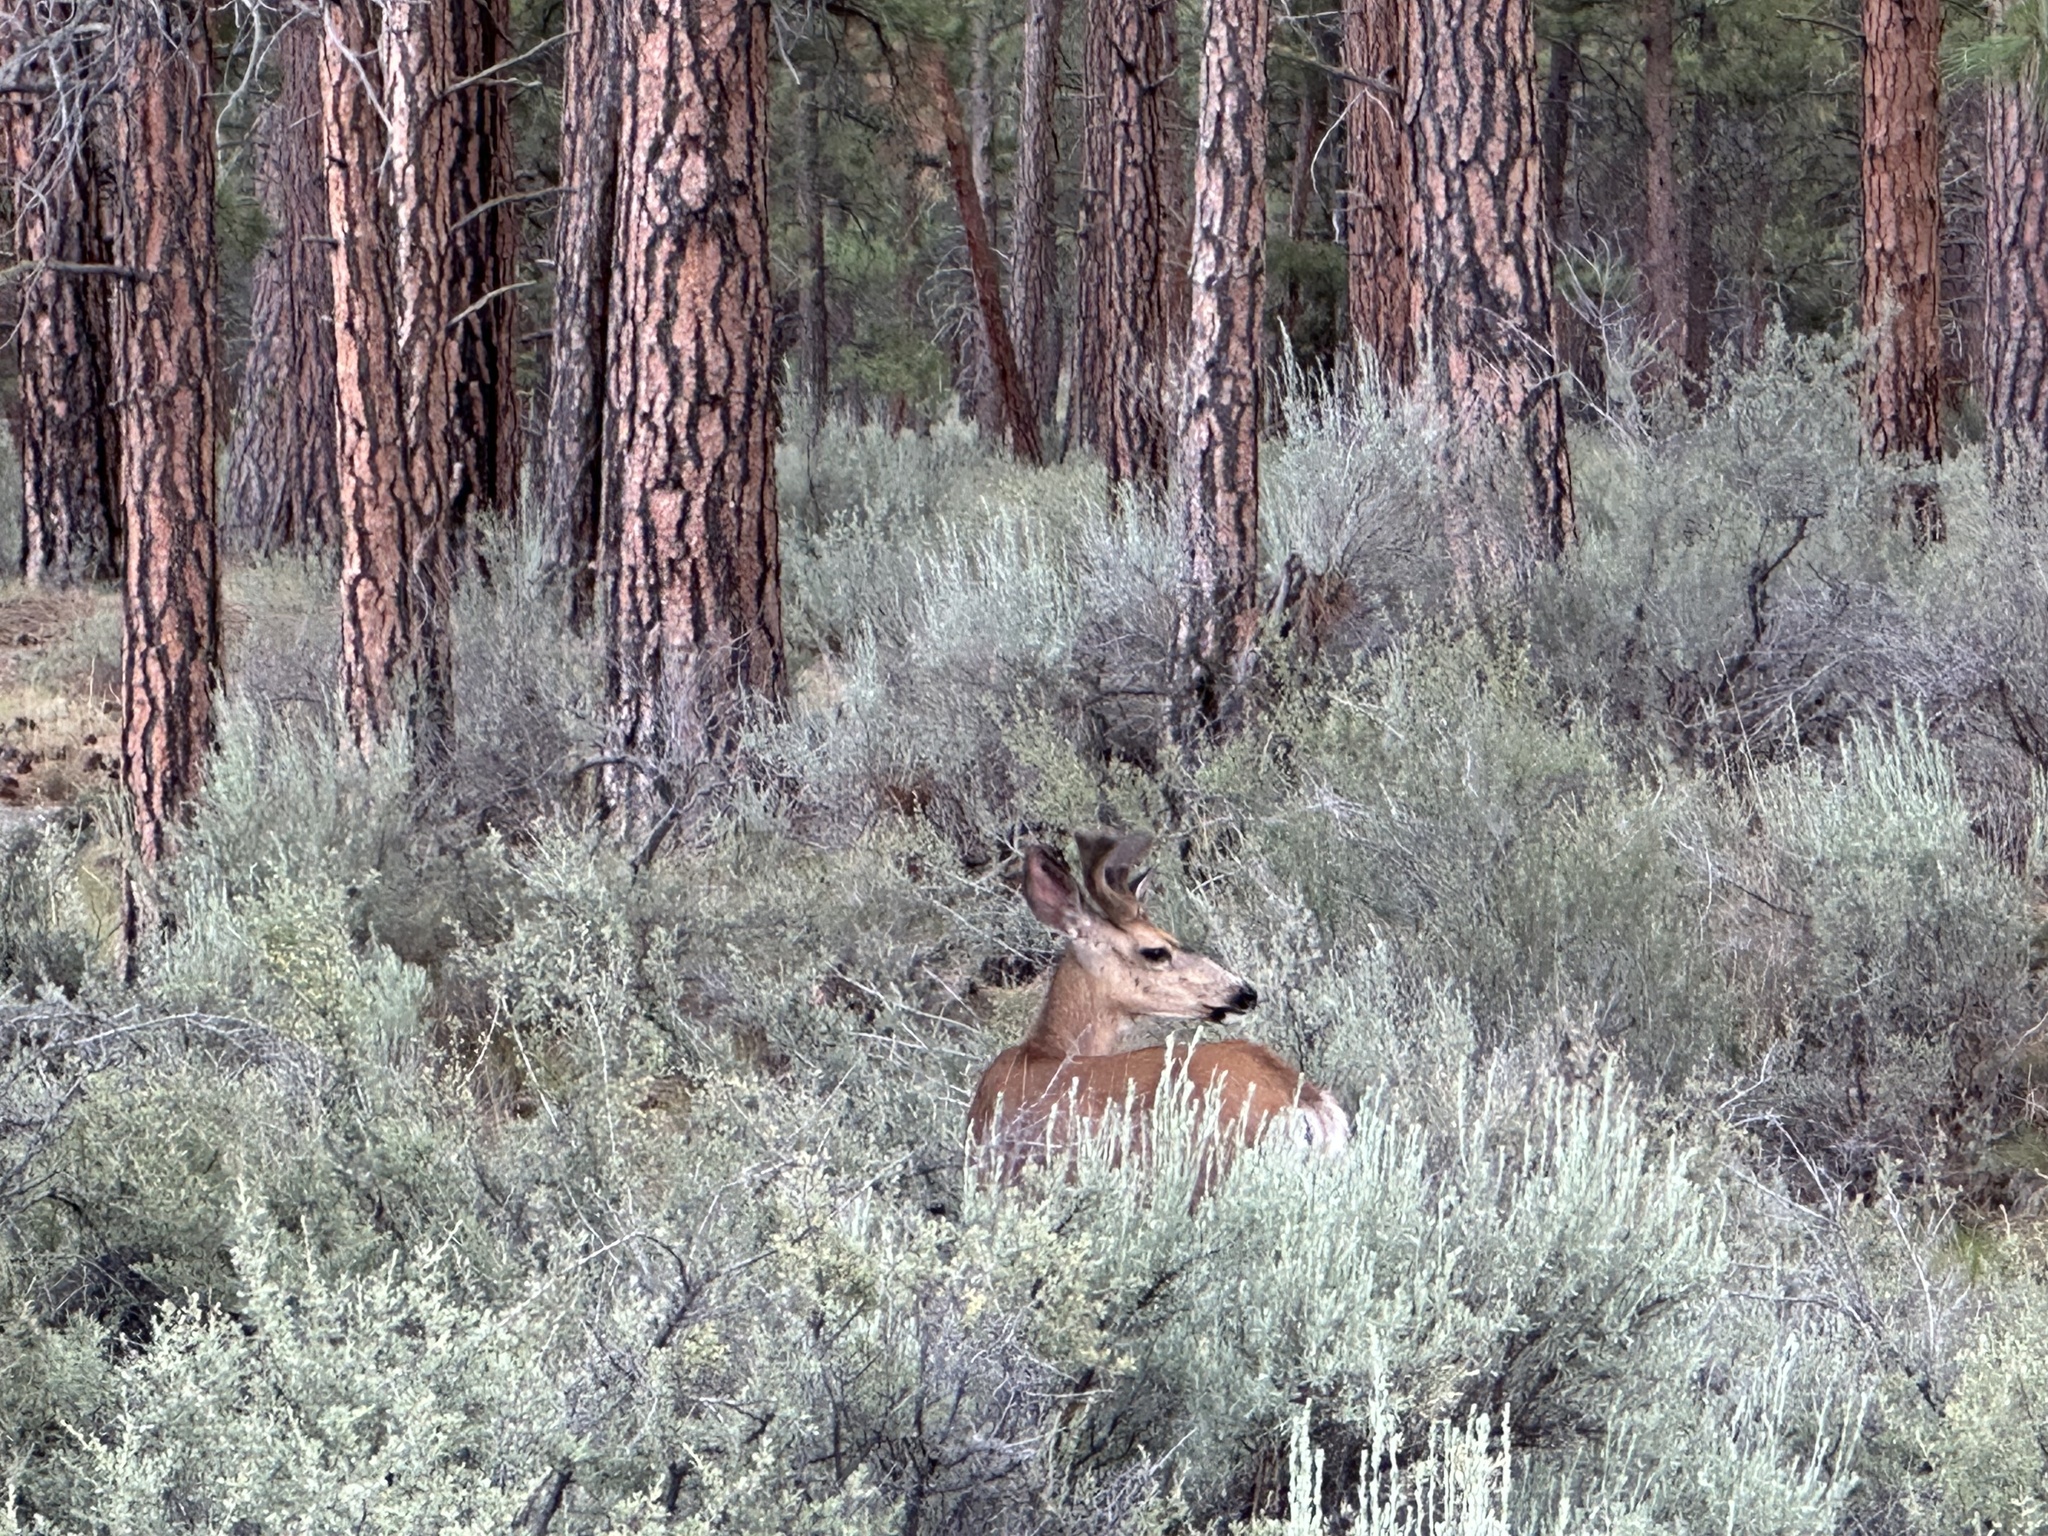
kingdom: Animalia
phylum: Chordata
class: Mammalia
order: Artiodactyla
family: Cervidae
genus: Odocoileus
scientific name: Odocoileus hemionus
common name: Mule deer
